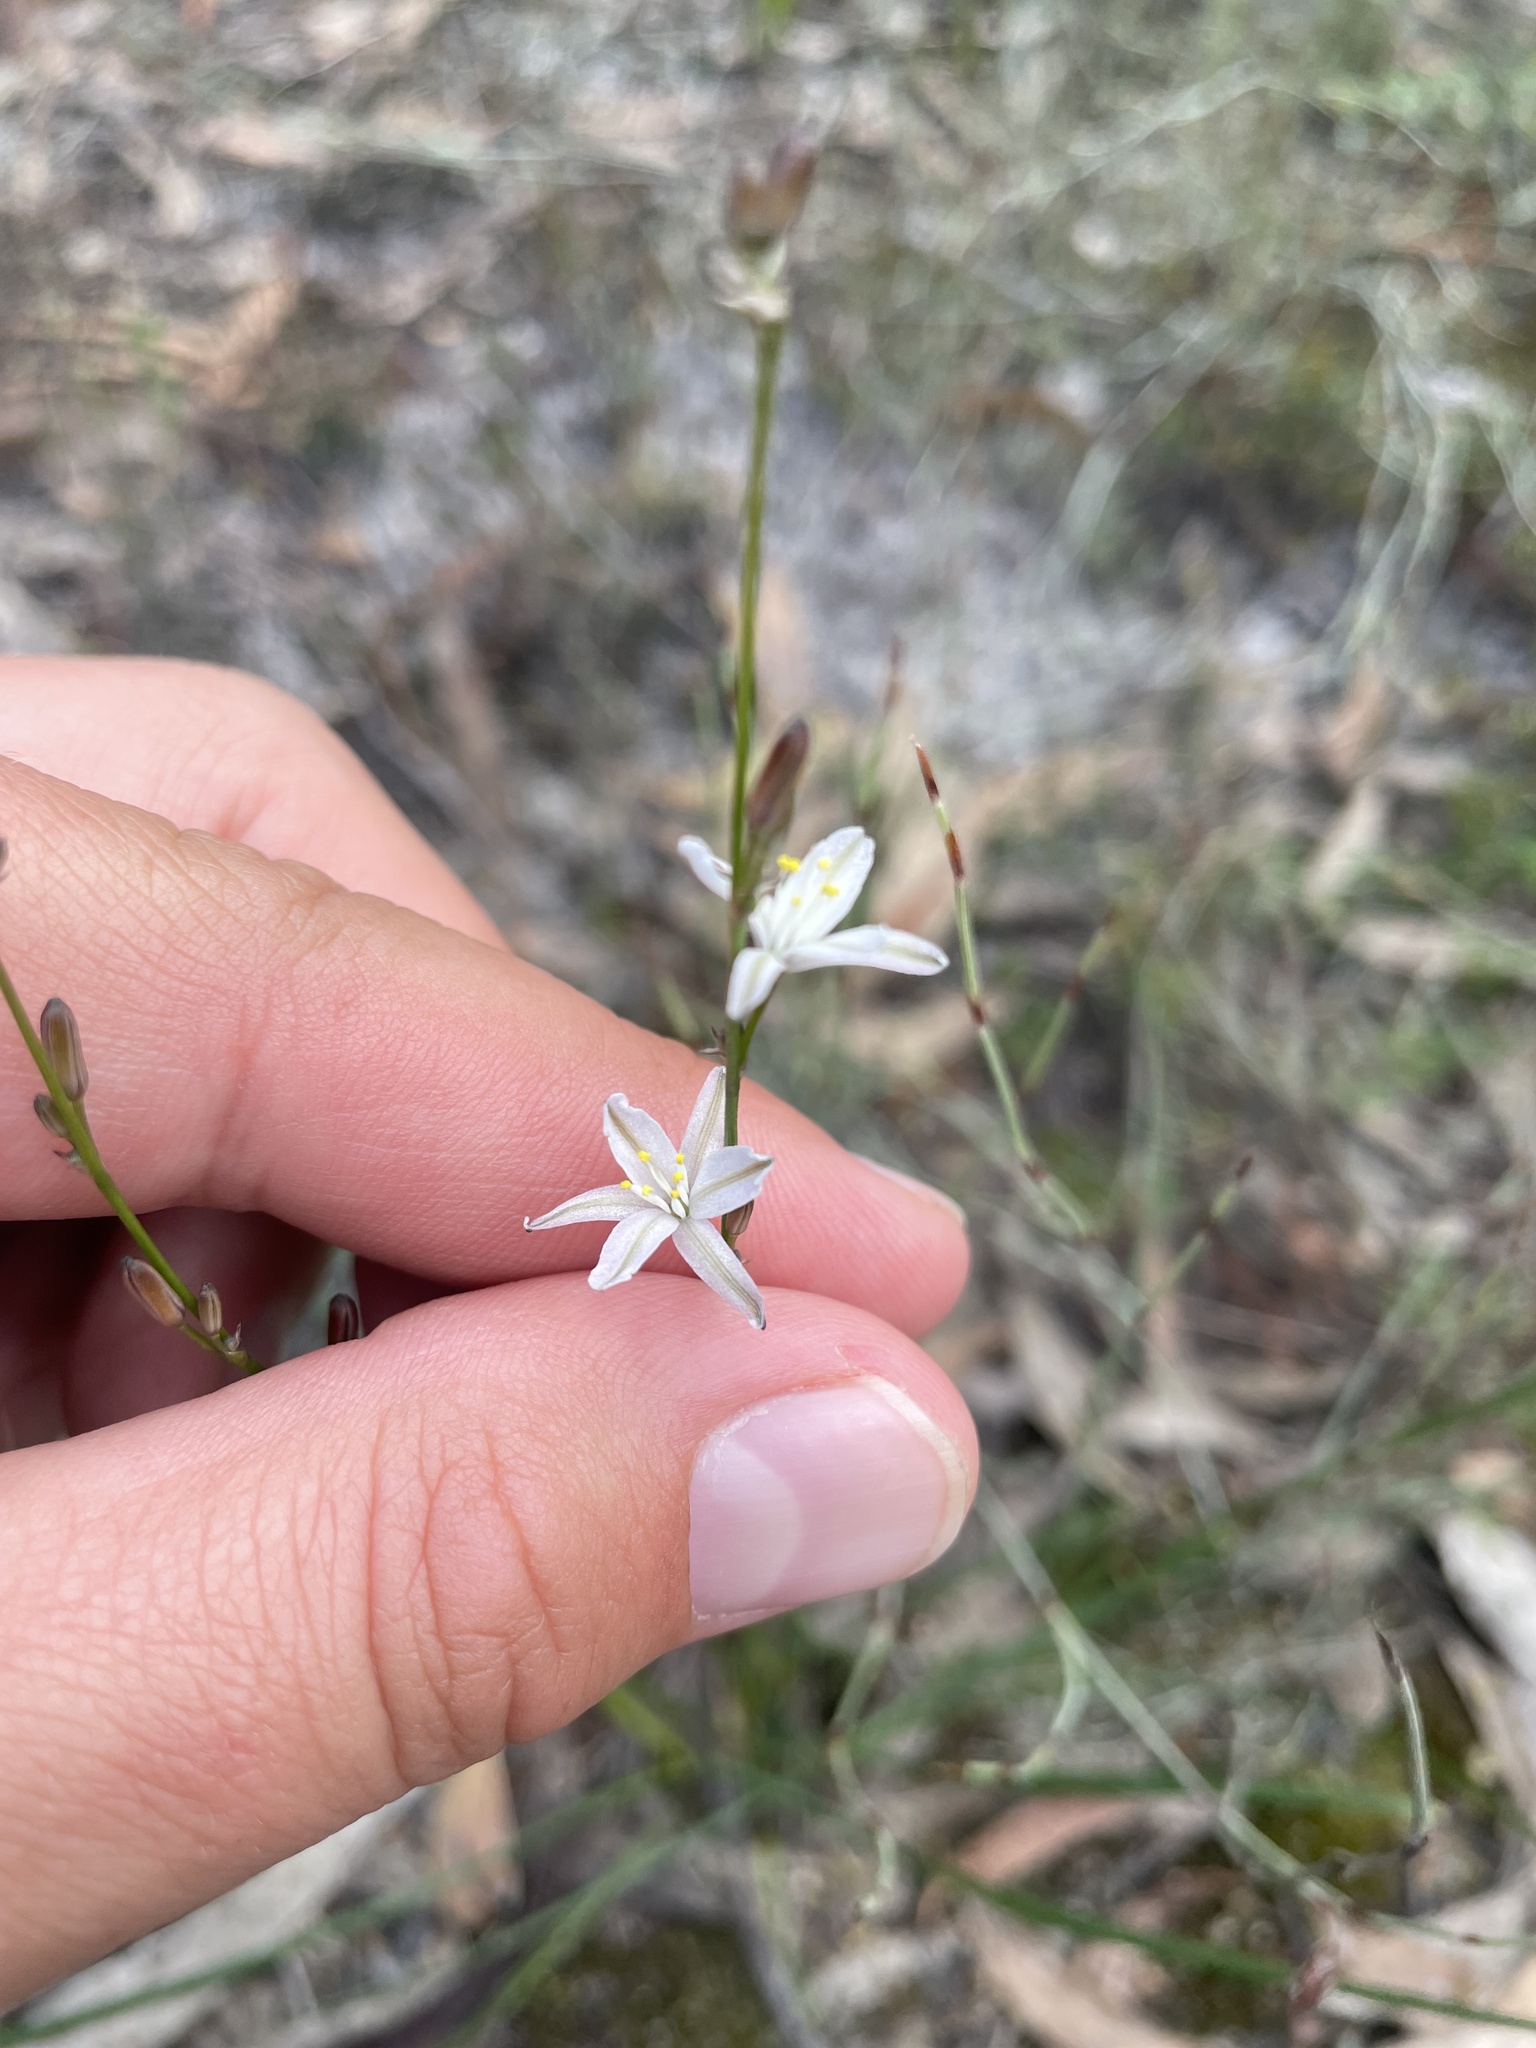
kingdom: Plantae
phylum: Tracheophyta
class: Liliopsida
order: Asparagales
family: Asphodelaceae
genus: Caesia
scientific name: Caesia parviflora
